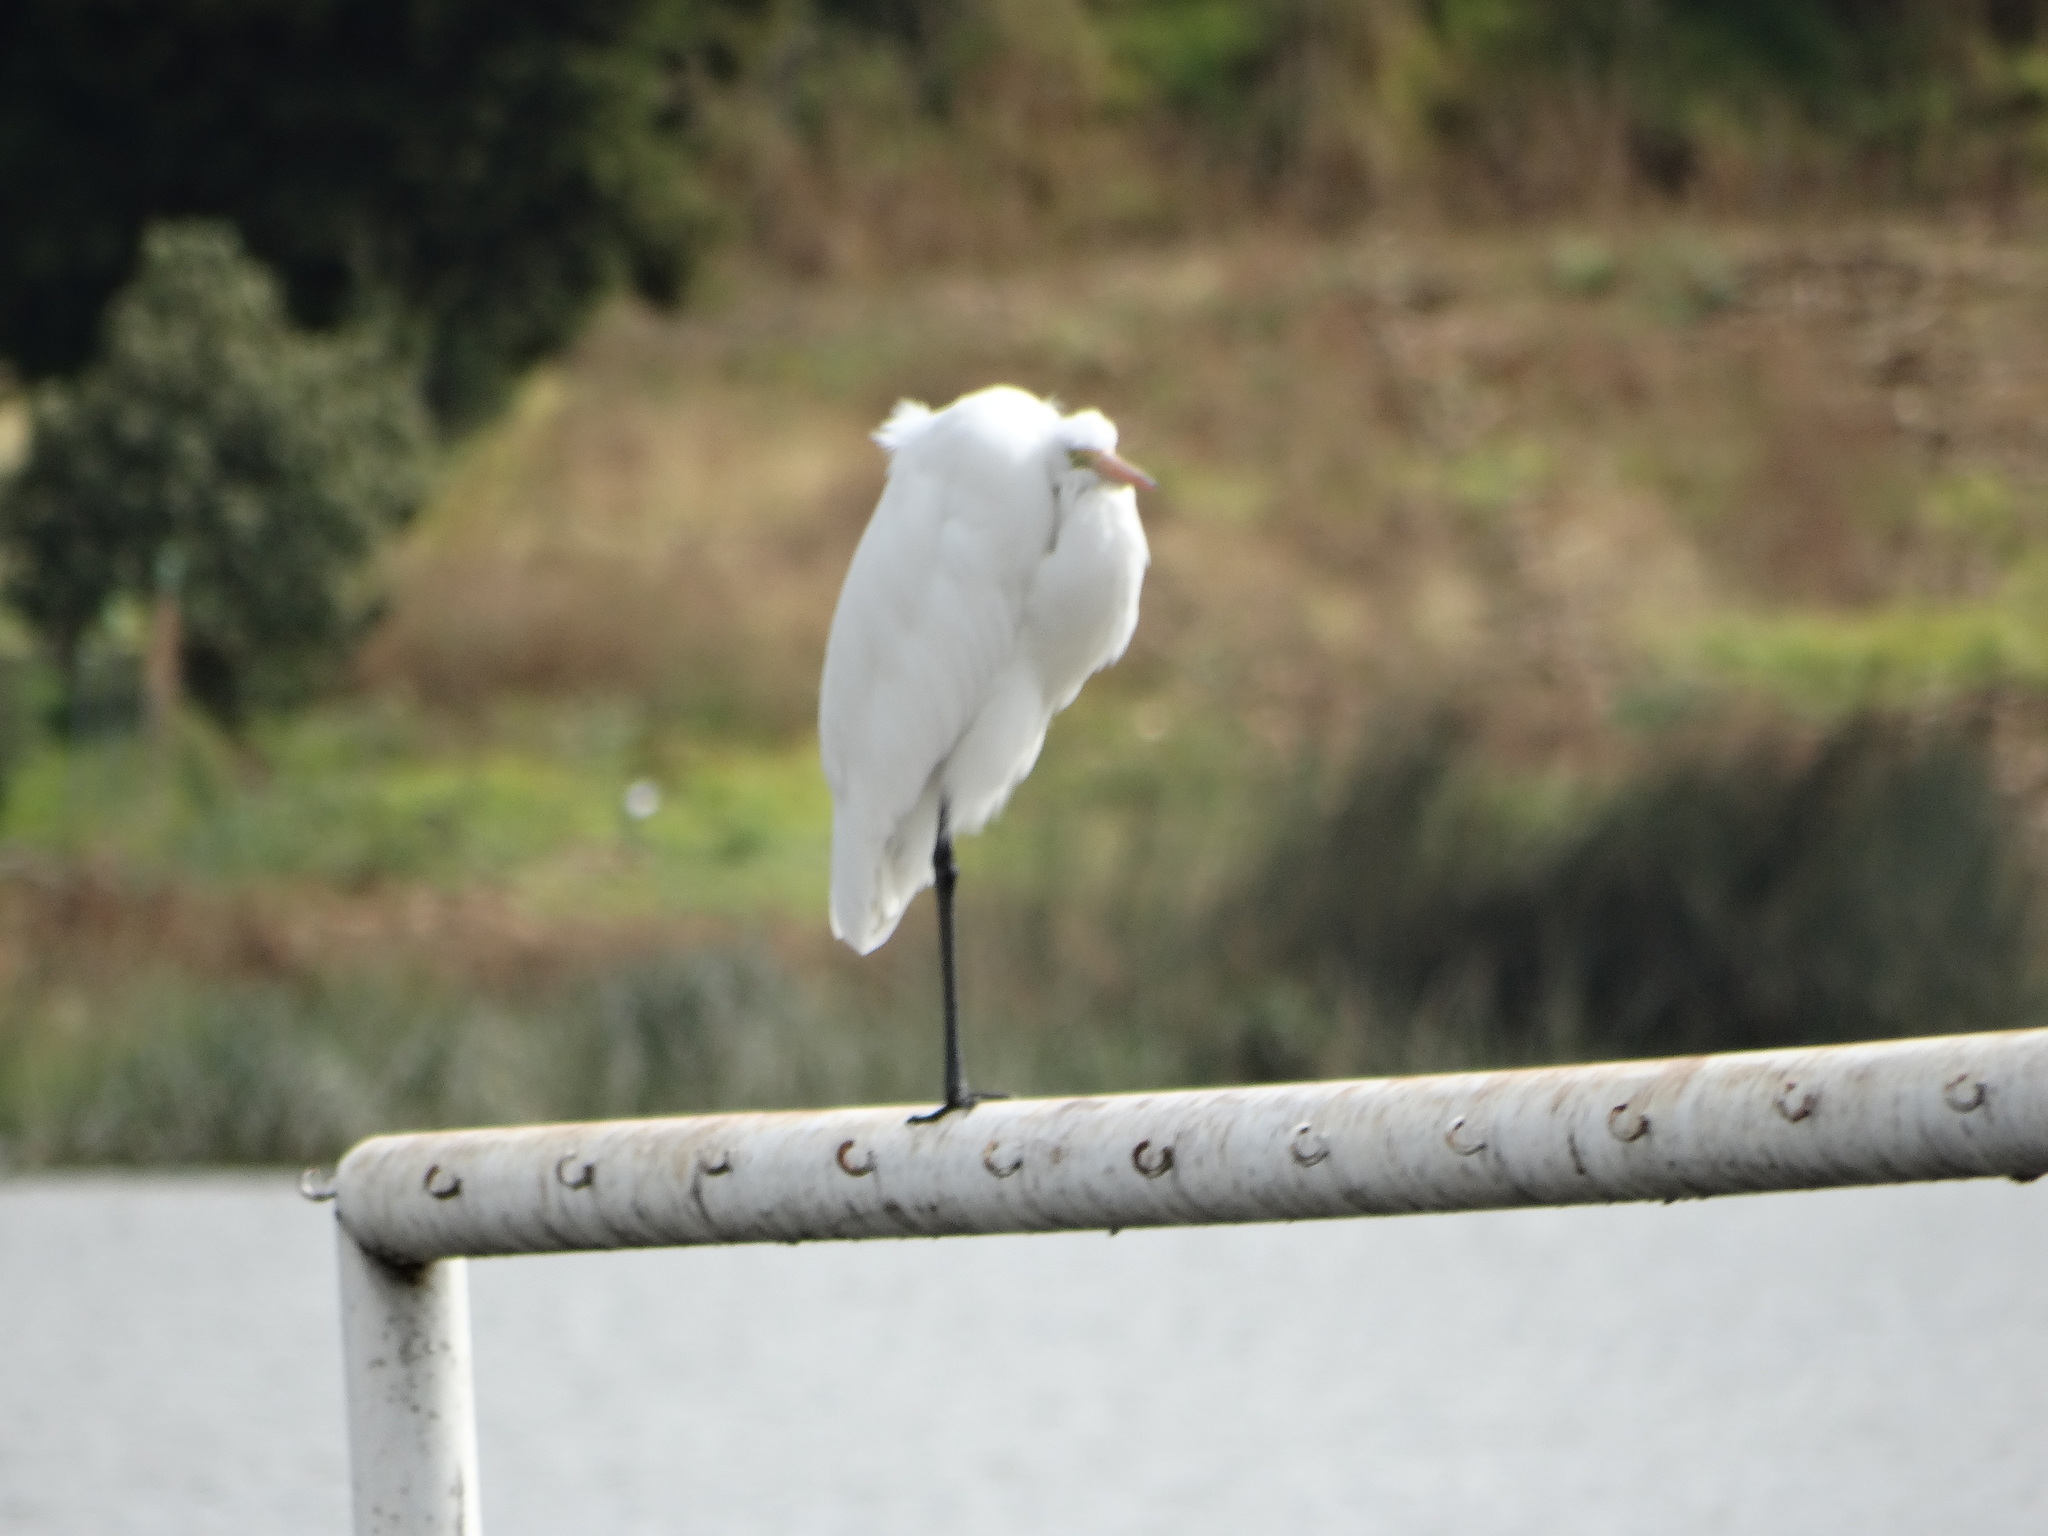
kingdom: Animalia
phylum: Chordata
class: Aves
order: Pelecaniformes
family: Ardeidae
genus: Ardea
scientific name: Ardea alba
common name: Great egret
